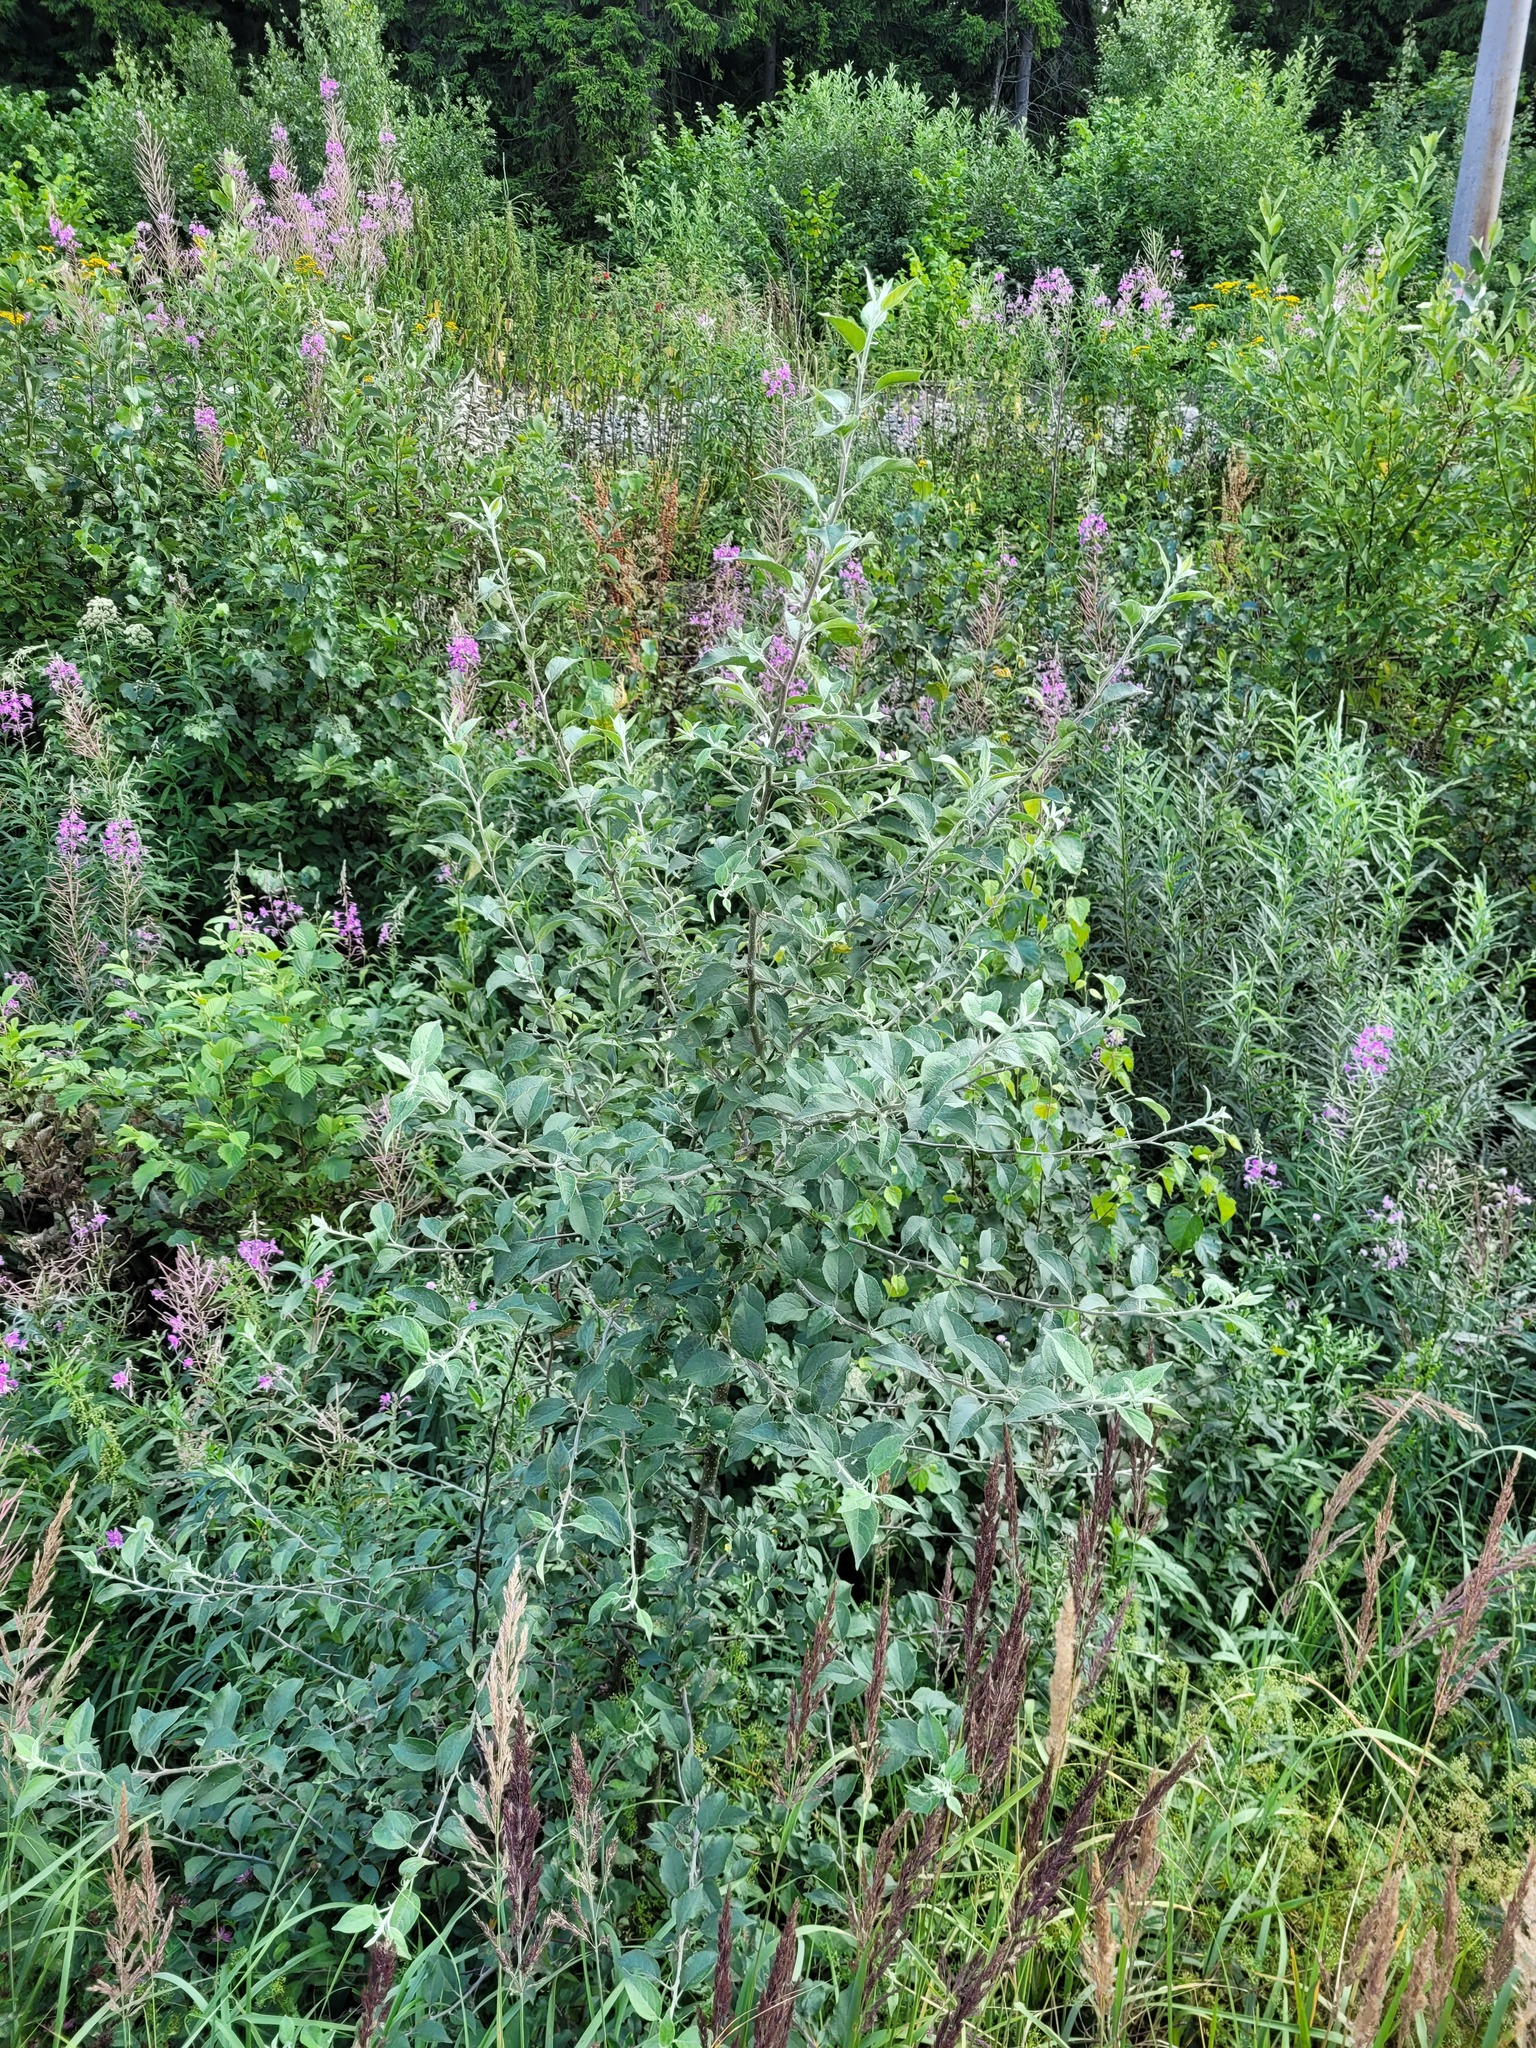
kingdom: Plantae
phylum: Tracheophyta
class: Magnoliopsida
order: Rosales
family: Rosaceae
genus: Malus
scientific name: Malus domestica
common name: Apple
